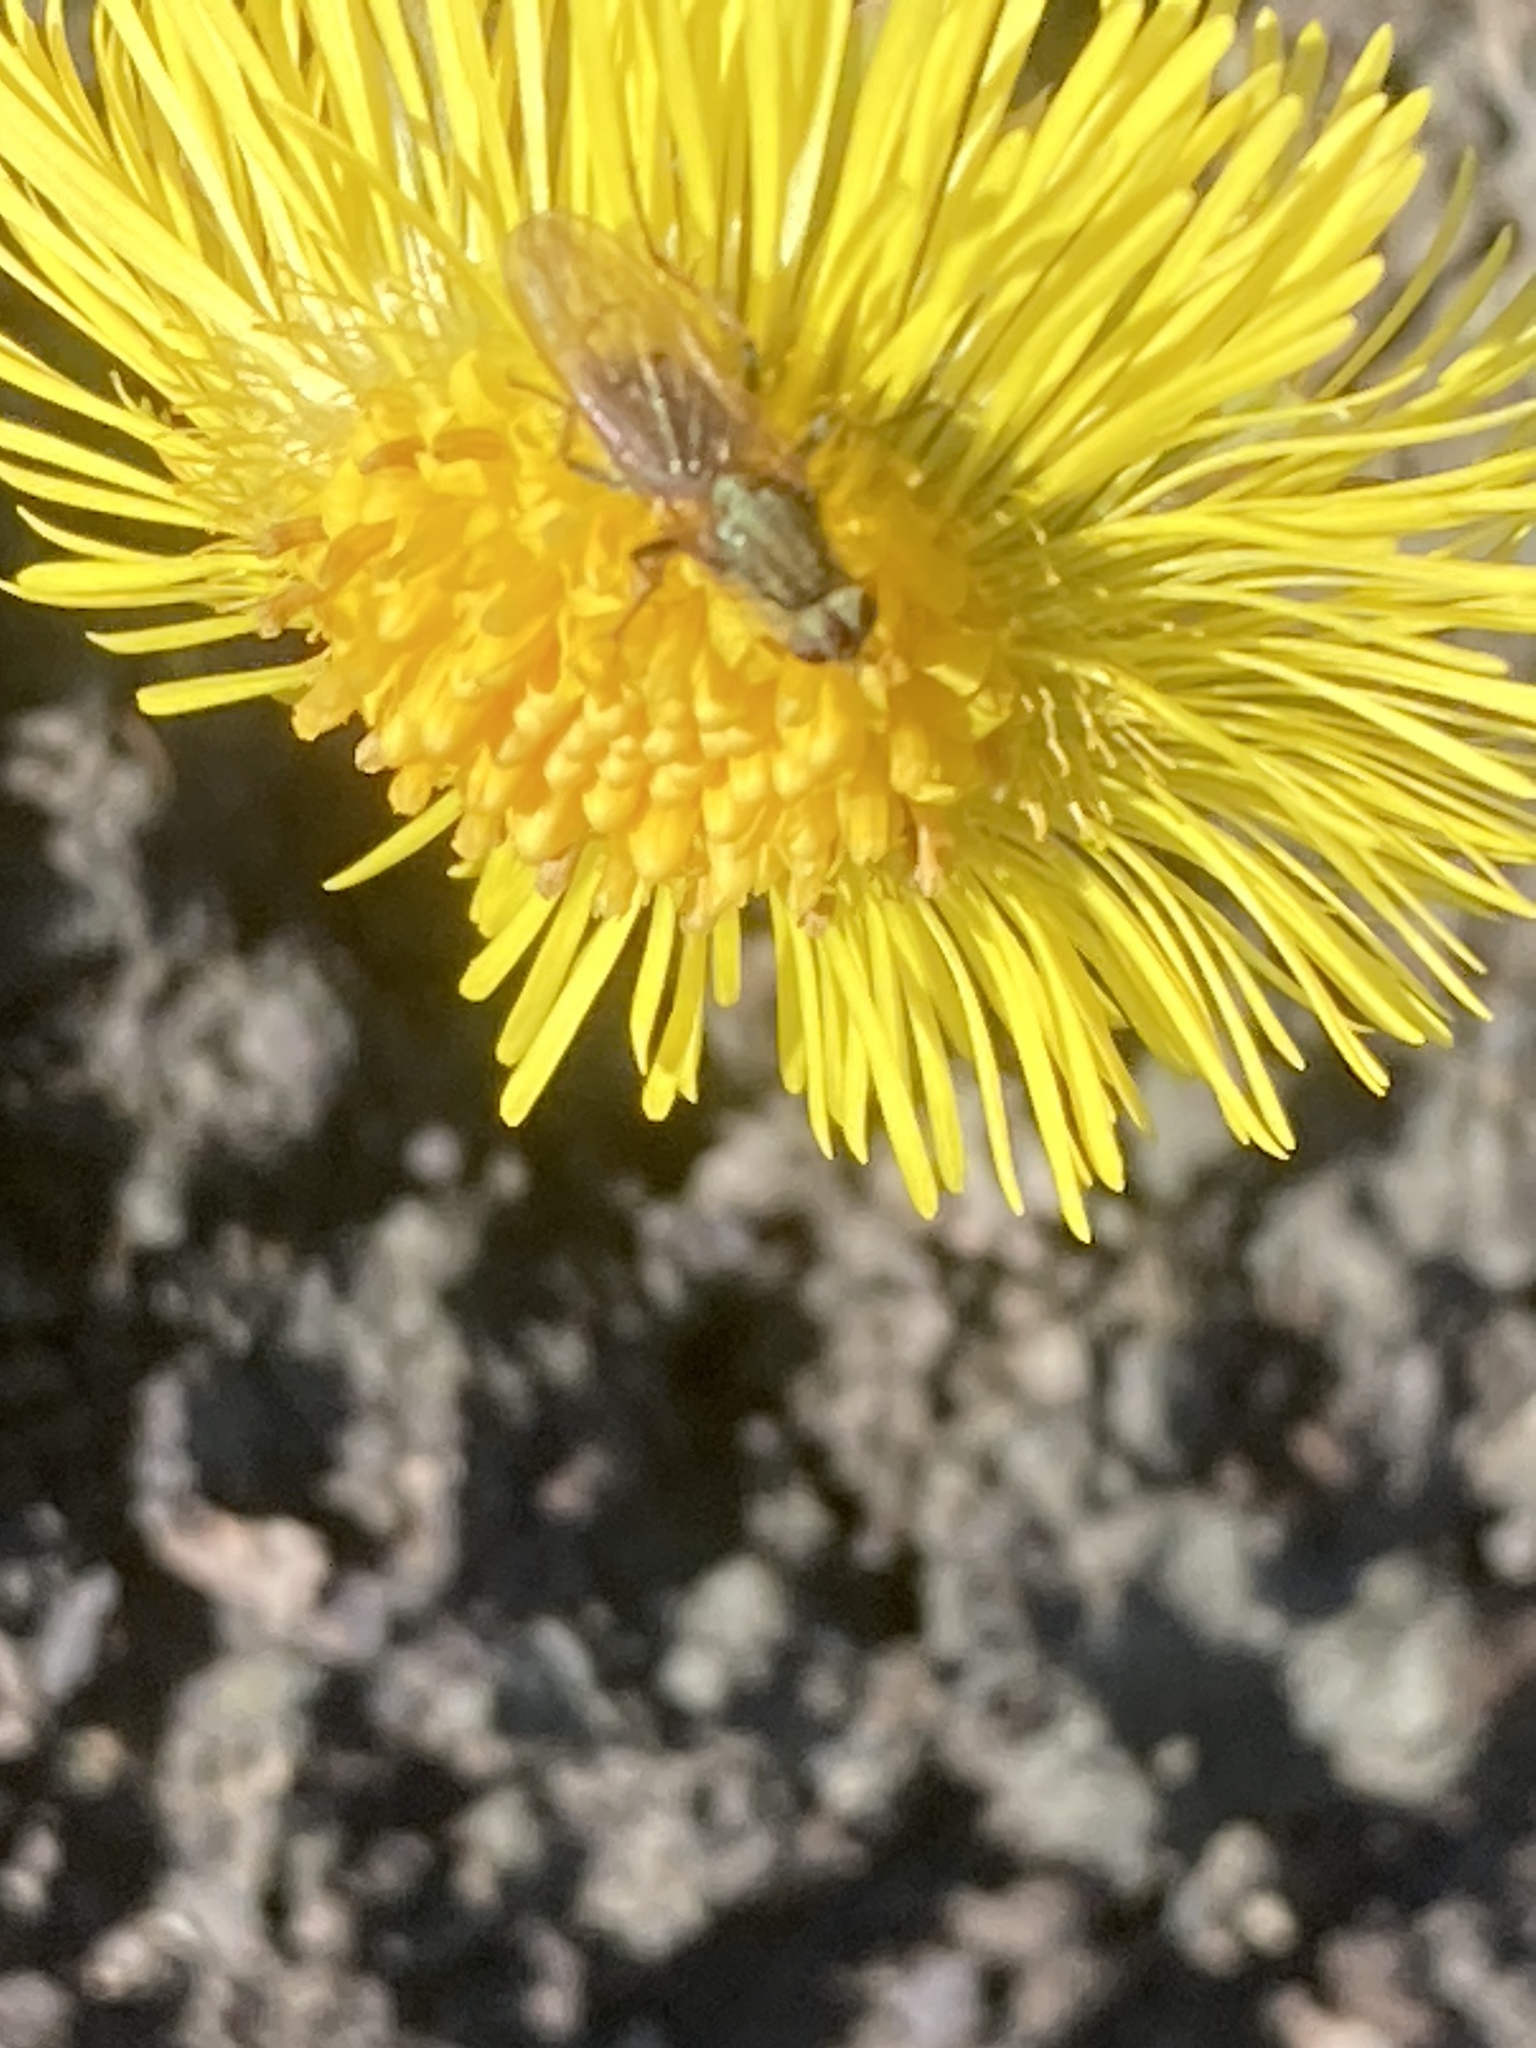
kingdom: Plantae
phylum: Tracheophyta
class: Magnoliopsida
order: Asterales
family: Asteraceae
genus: Tussilago
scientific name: Tussilago farfara
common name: Coltsfoot
